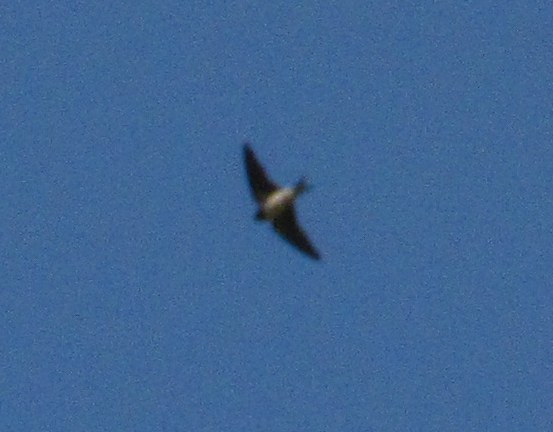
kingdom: Animalia
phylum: Chordata
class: Aves
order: Passeriformes
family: Hirundinidae
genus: Delichon
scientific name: Delichon urbicum
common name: Common house martin
